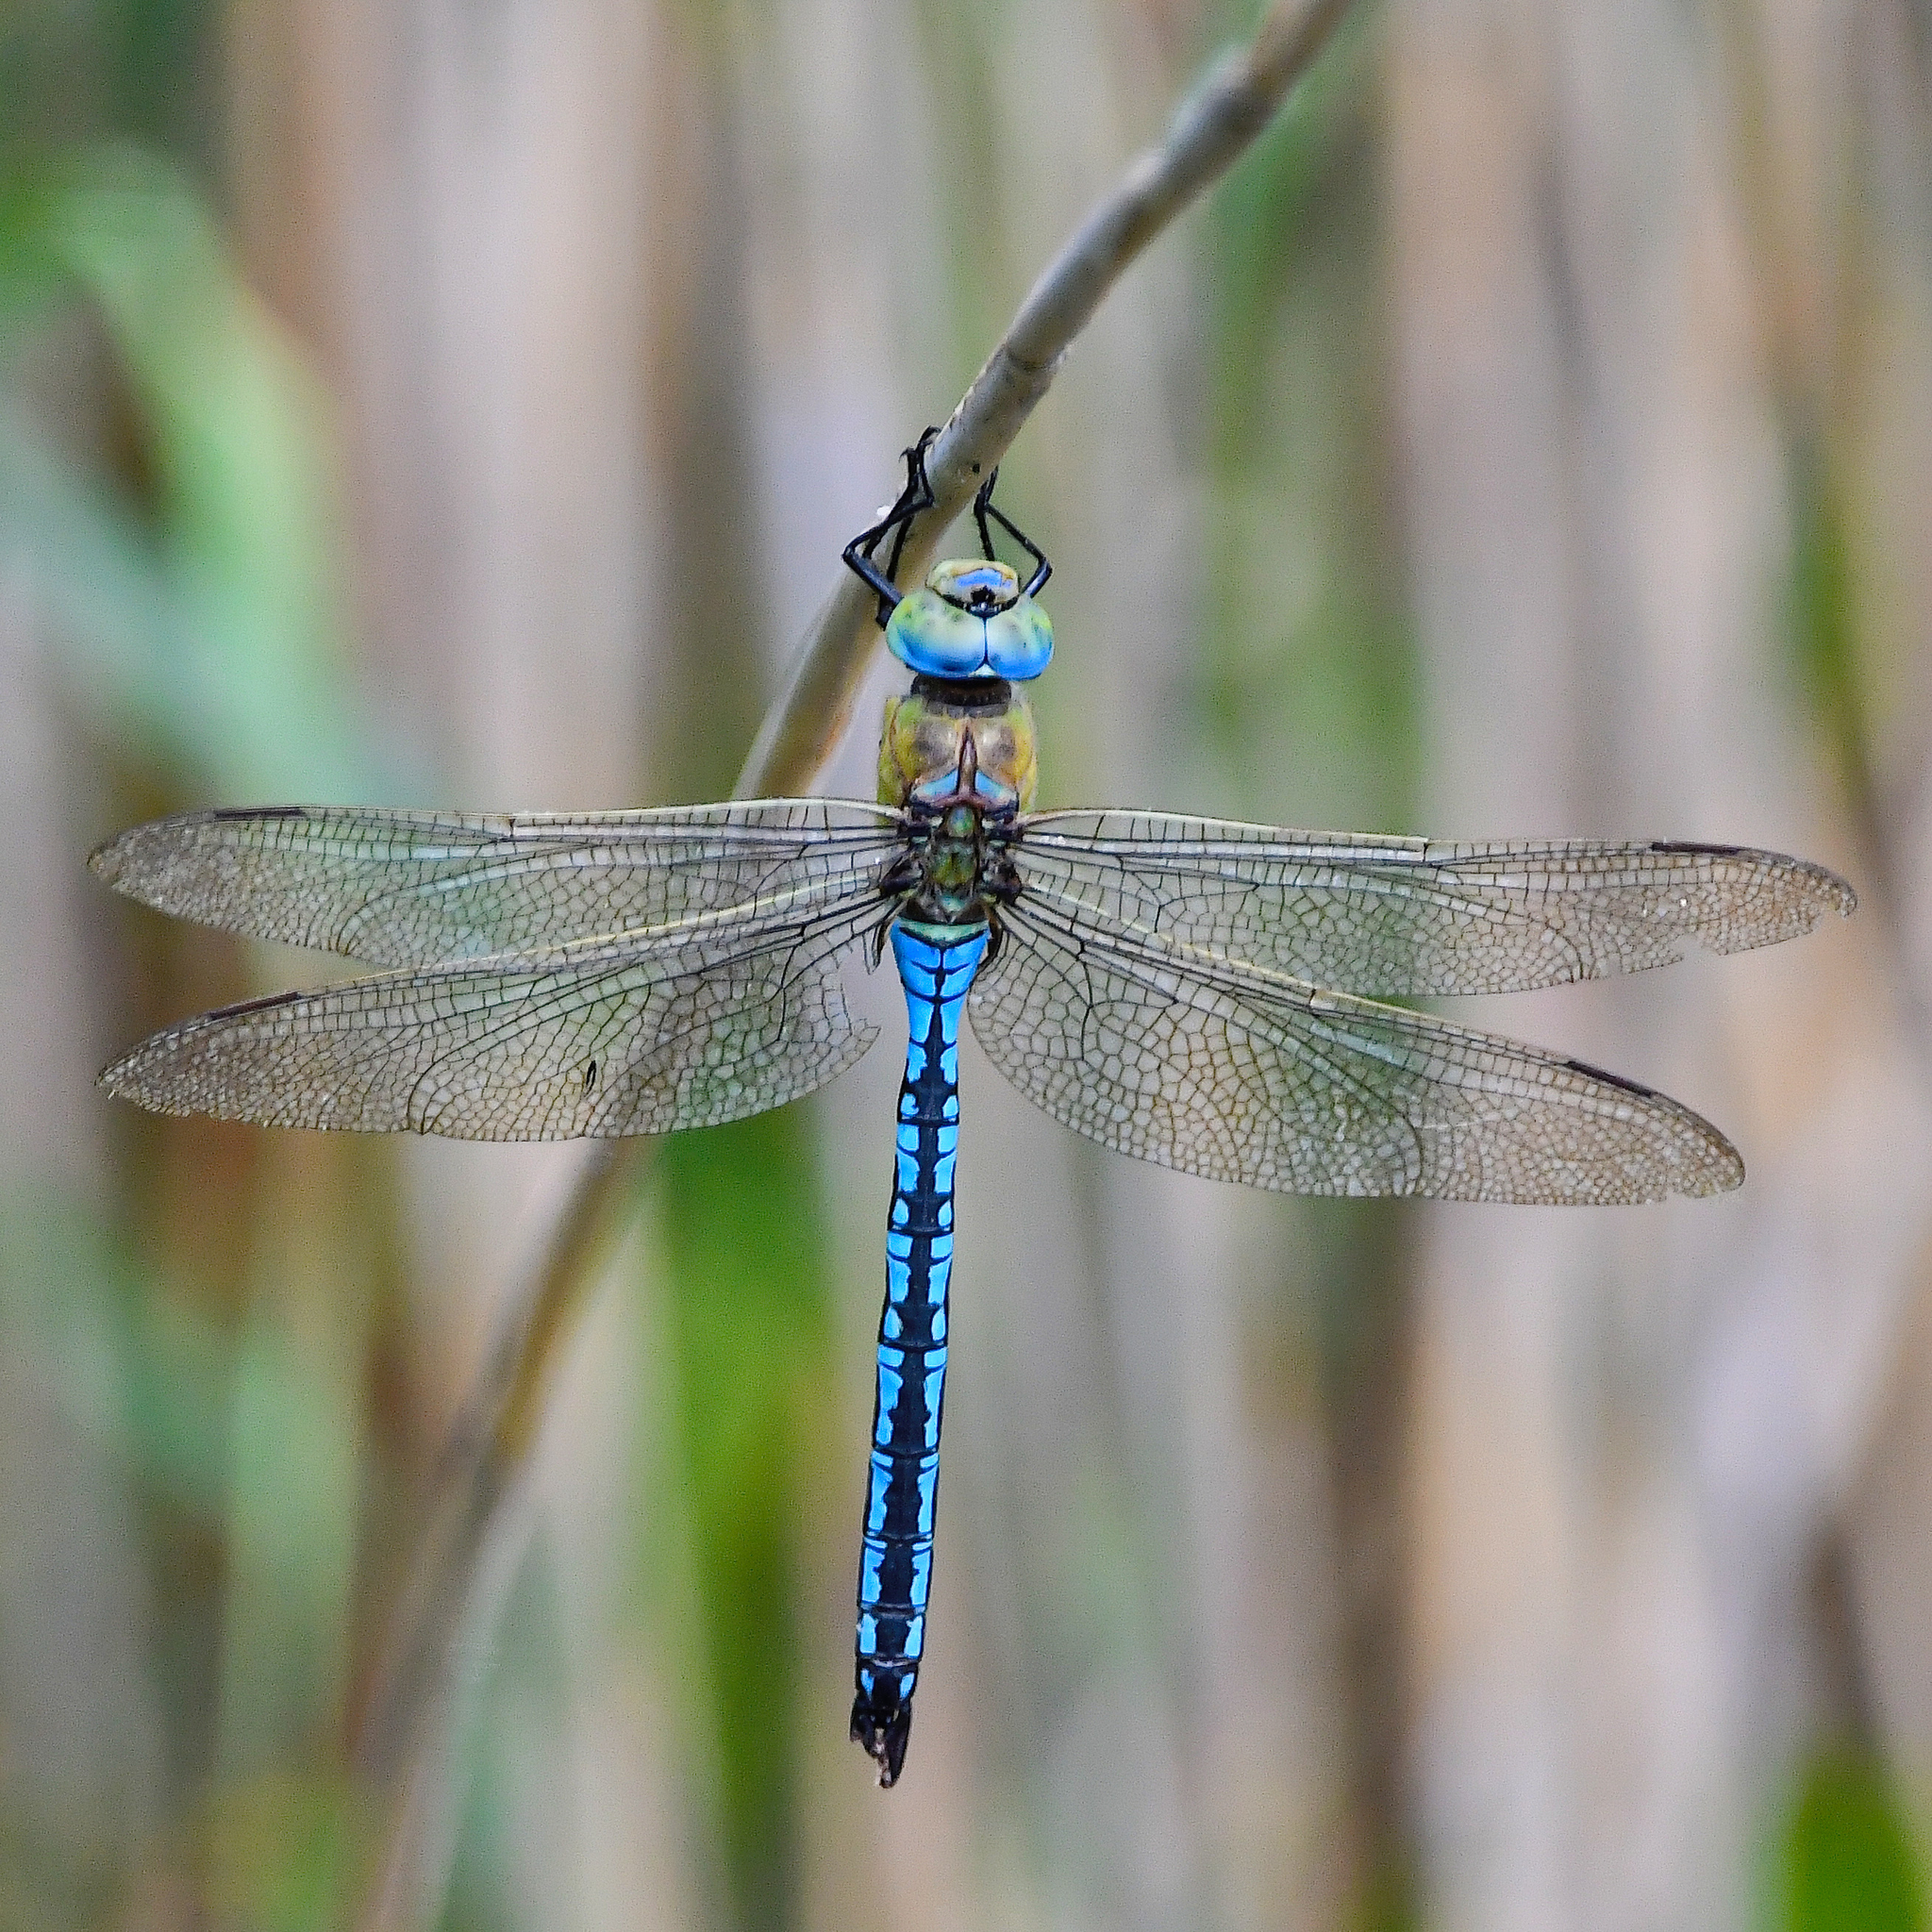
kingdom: Animalia
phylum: Arthropoda
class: Insecta
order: Odonata
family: Aeshnidae
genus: Anax
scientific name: Anax imperator
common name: Emperor dragonfly
